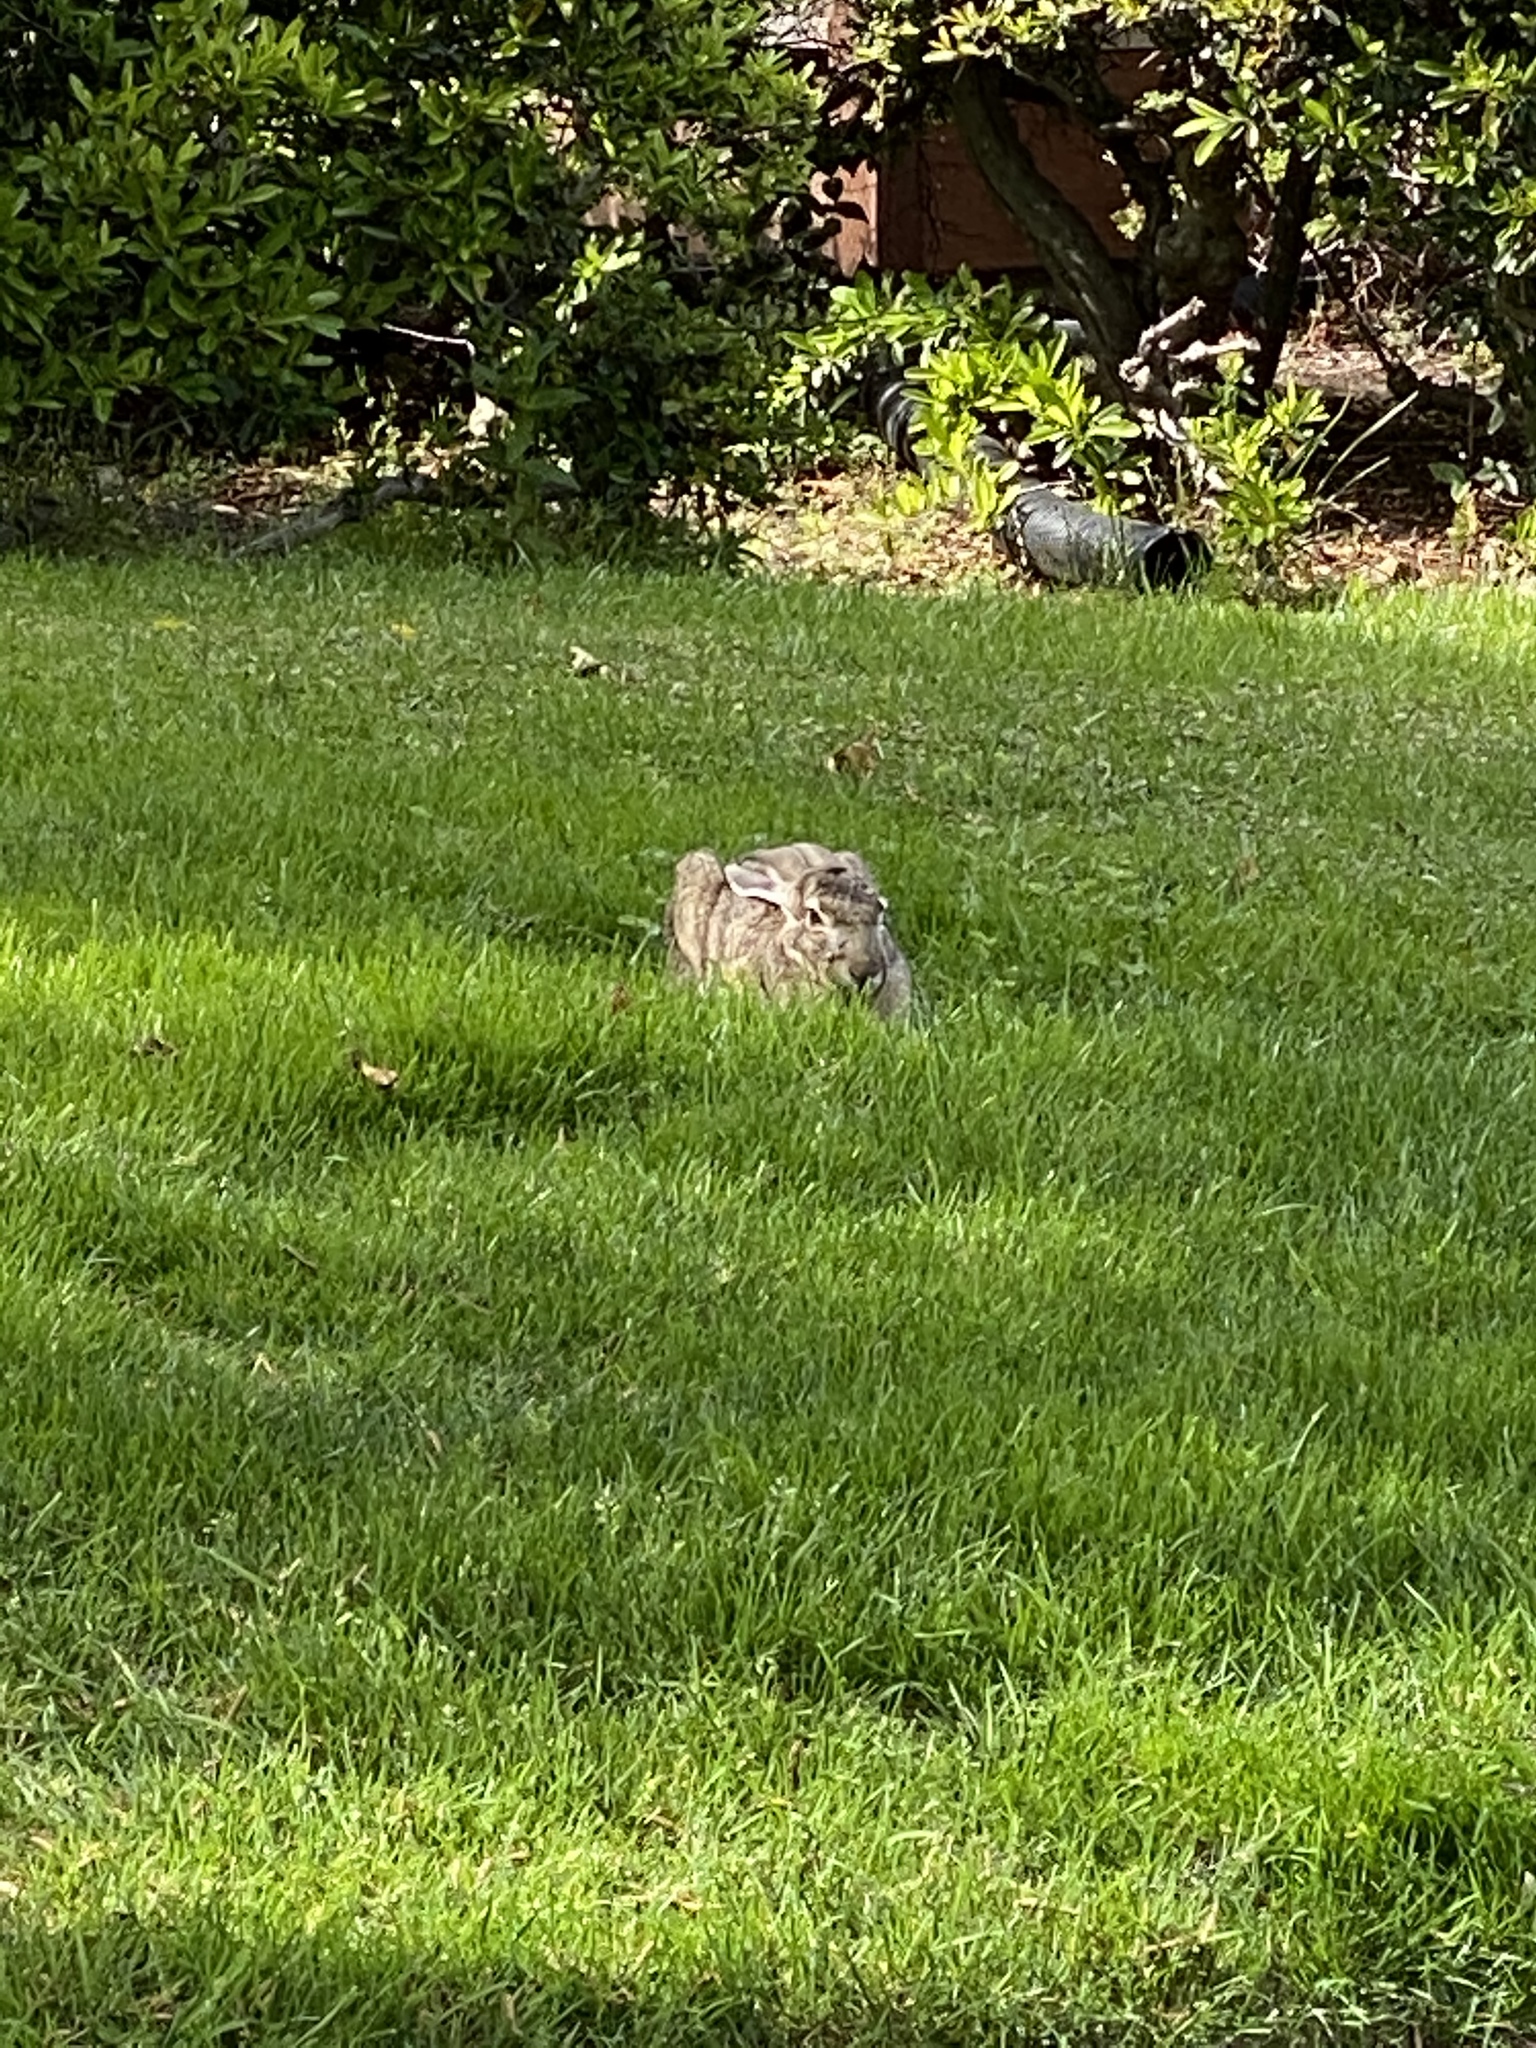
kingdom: Animalia
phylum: Chordata
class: Mammalia
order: Lagomorpha
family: Leporidae
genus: Lepus
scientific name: Lepus californicus
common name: Black-tailed jackrabbit
